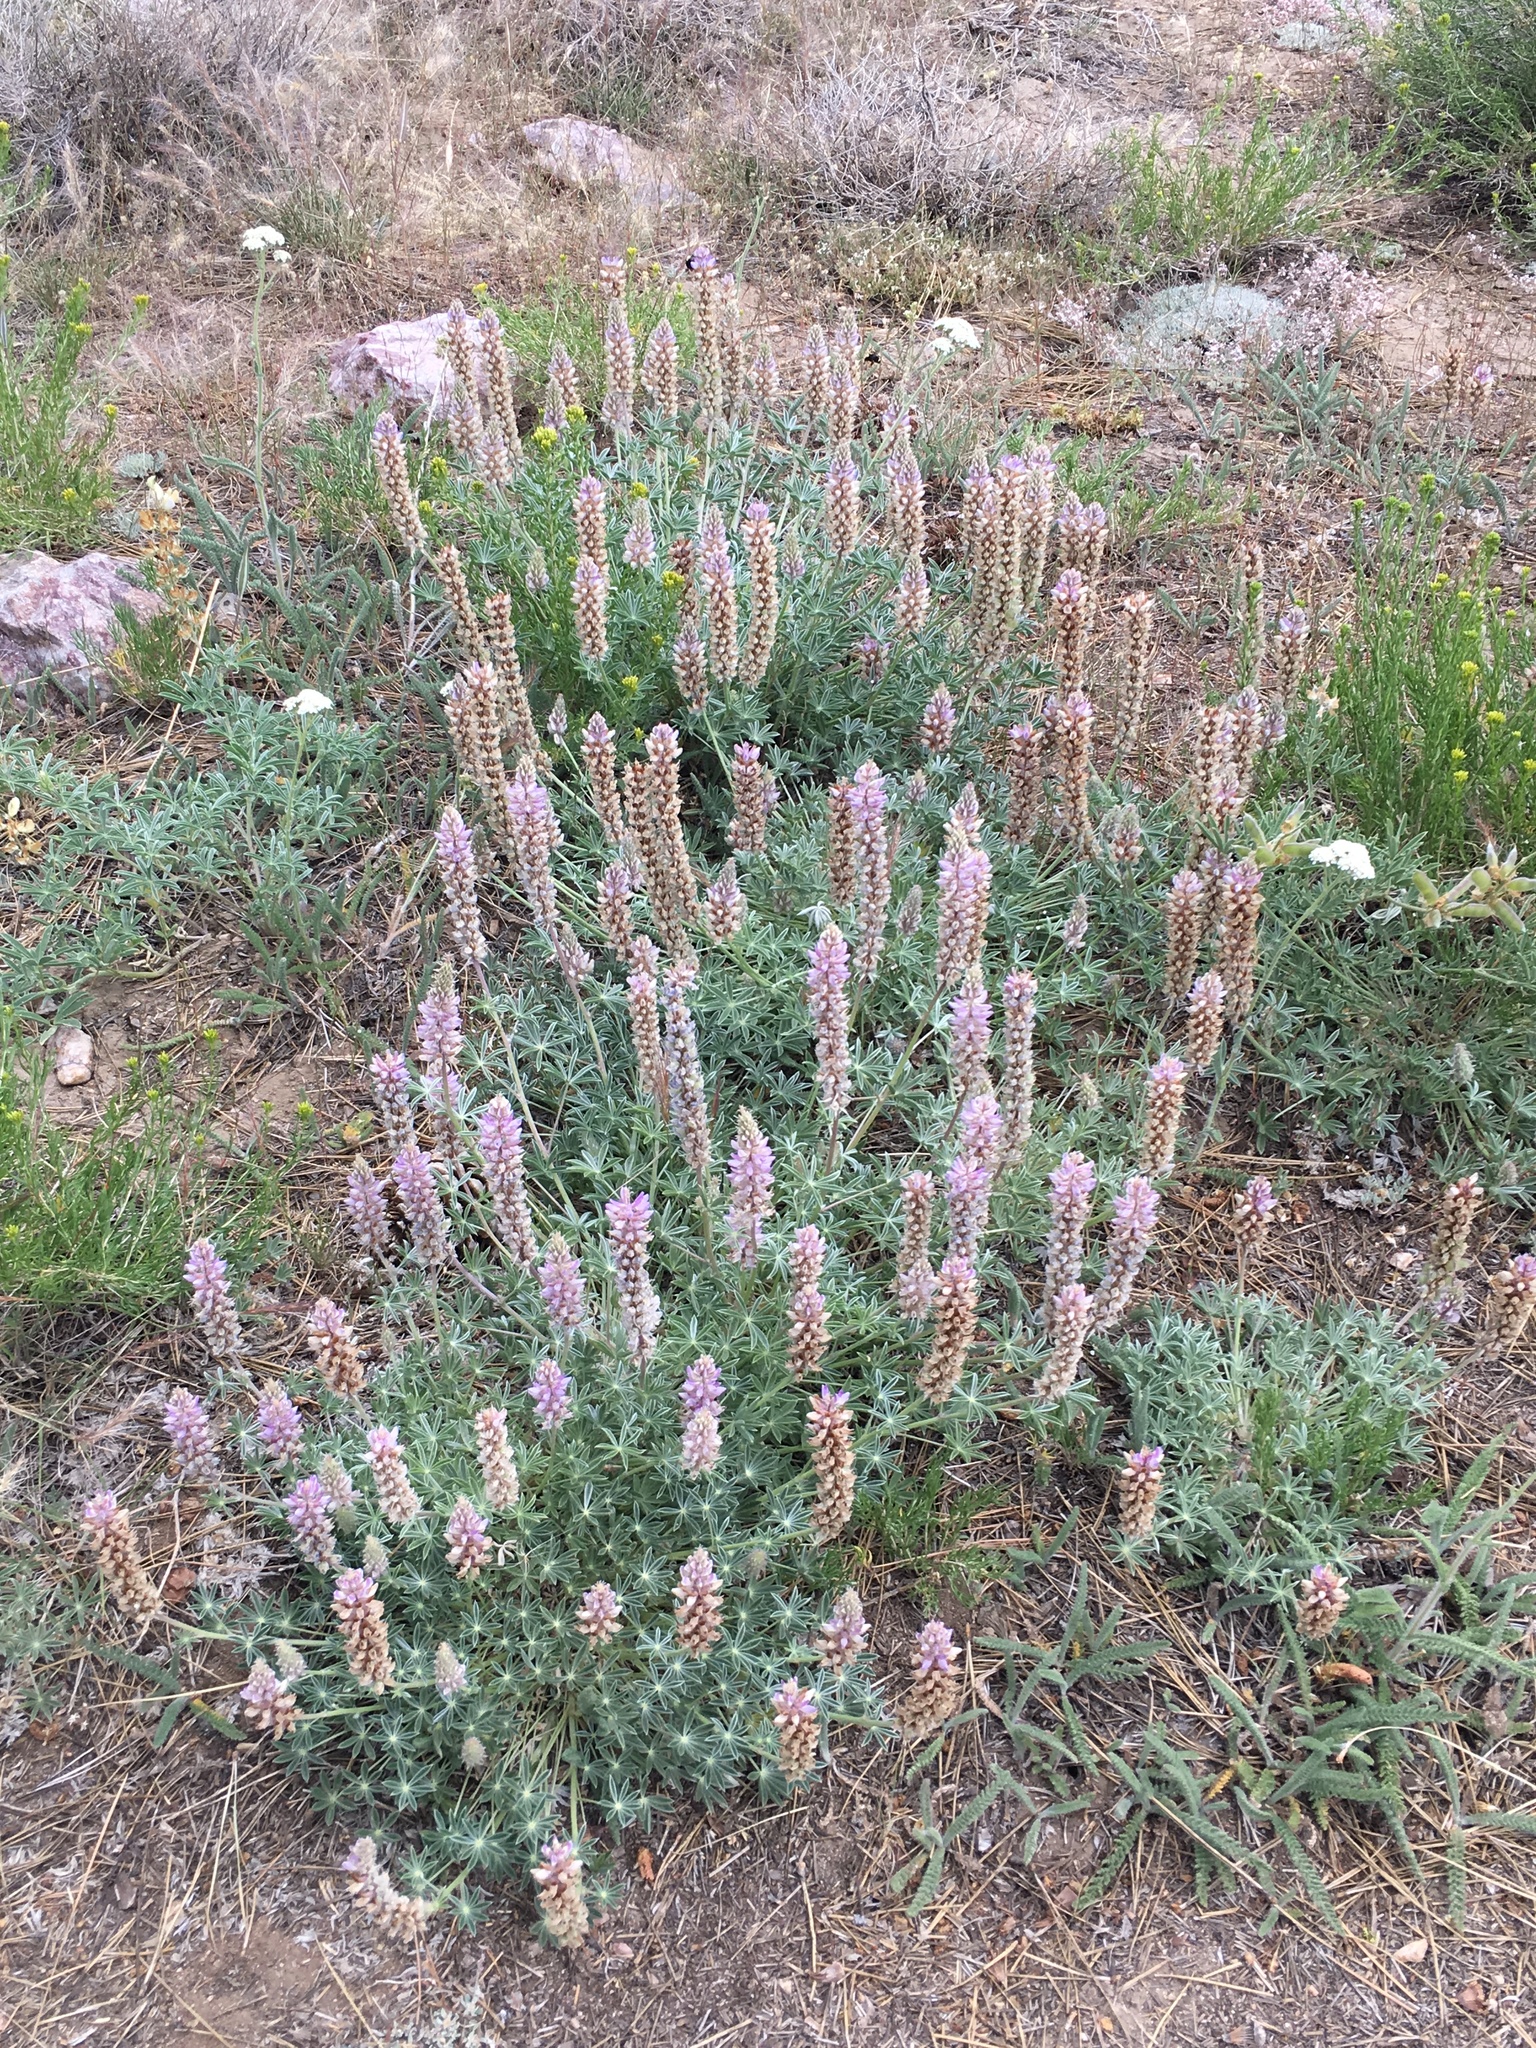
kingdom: Plantae
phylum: Tracheophyta
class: Magnoliopsida
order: Fabales
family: Fabaceae
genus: Lupinus
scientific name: Lupinus confertus
